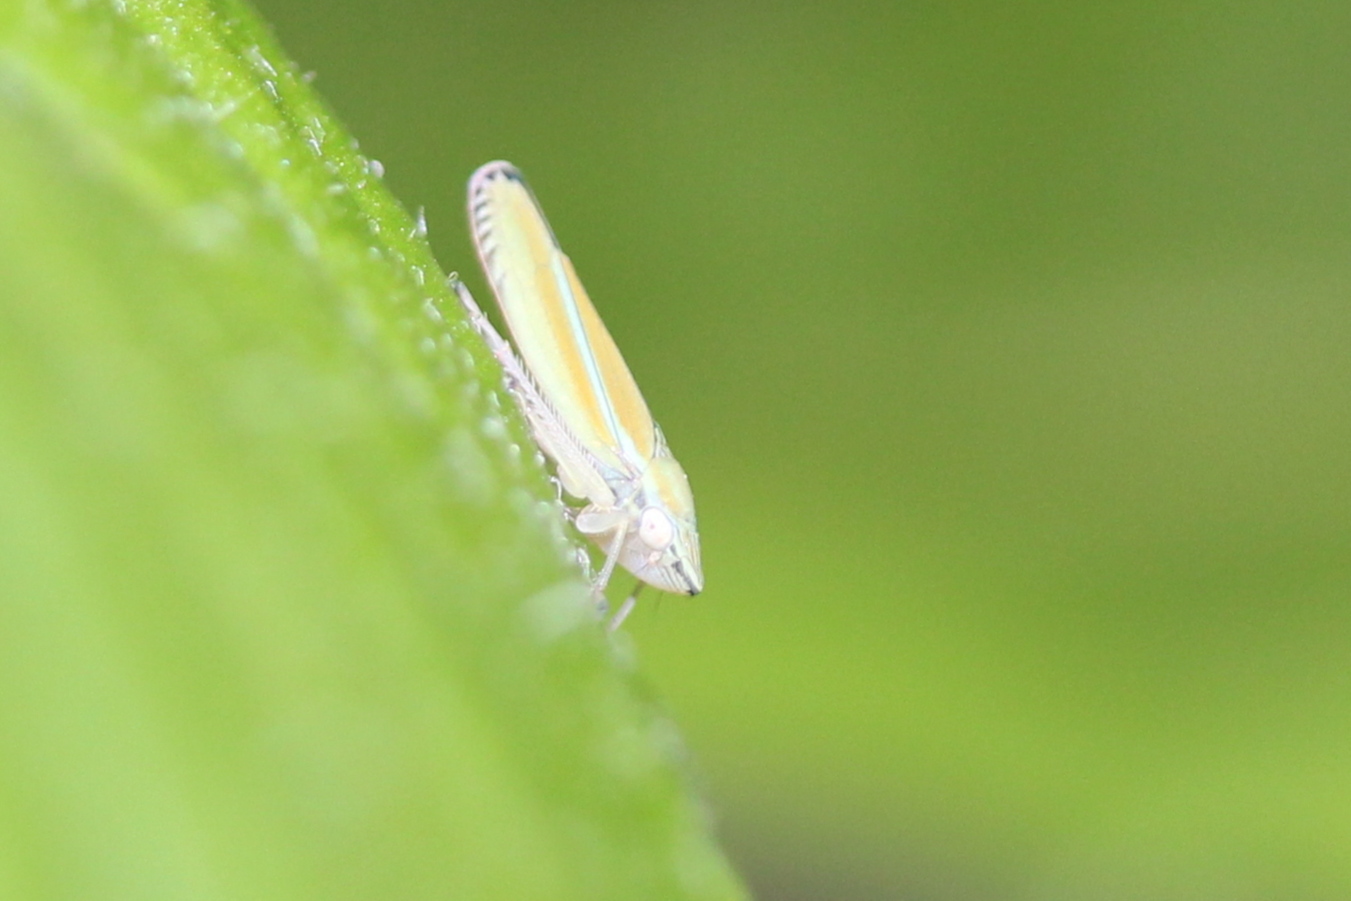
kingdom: Animalia
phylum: Arthropoda
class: Insecta
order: Hemiptera
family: Cicadellidae
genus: Graphocephala
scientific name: Graphocephala versuta
